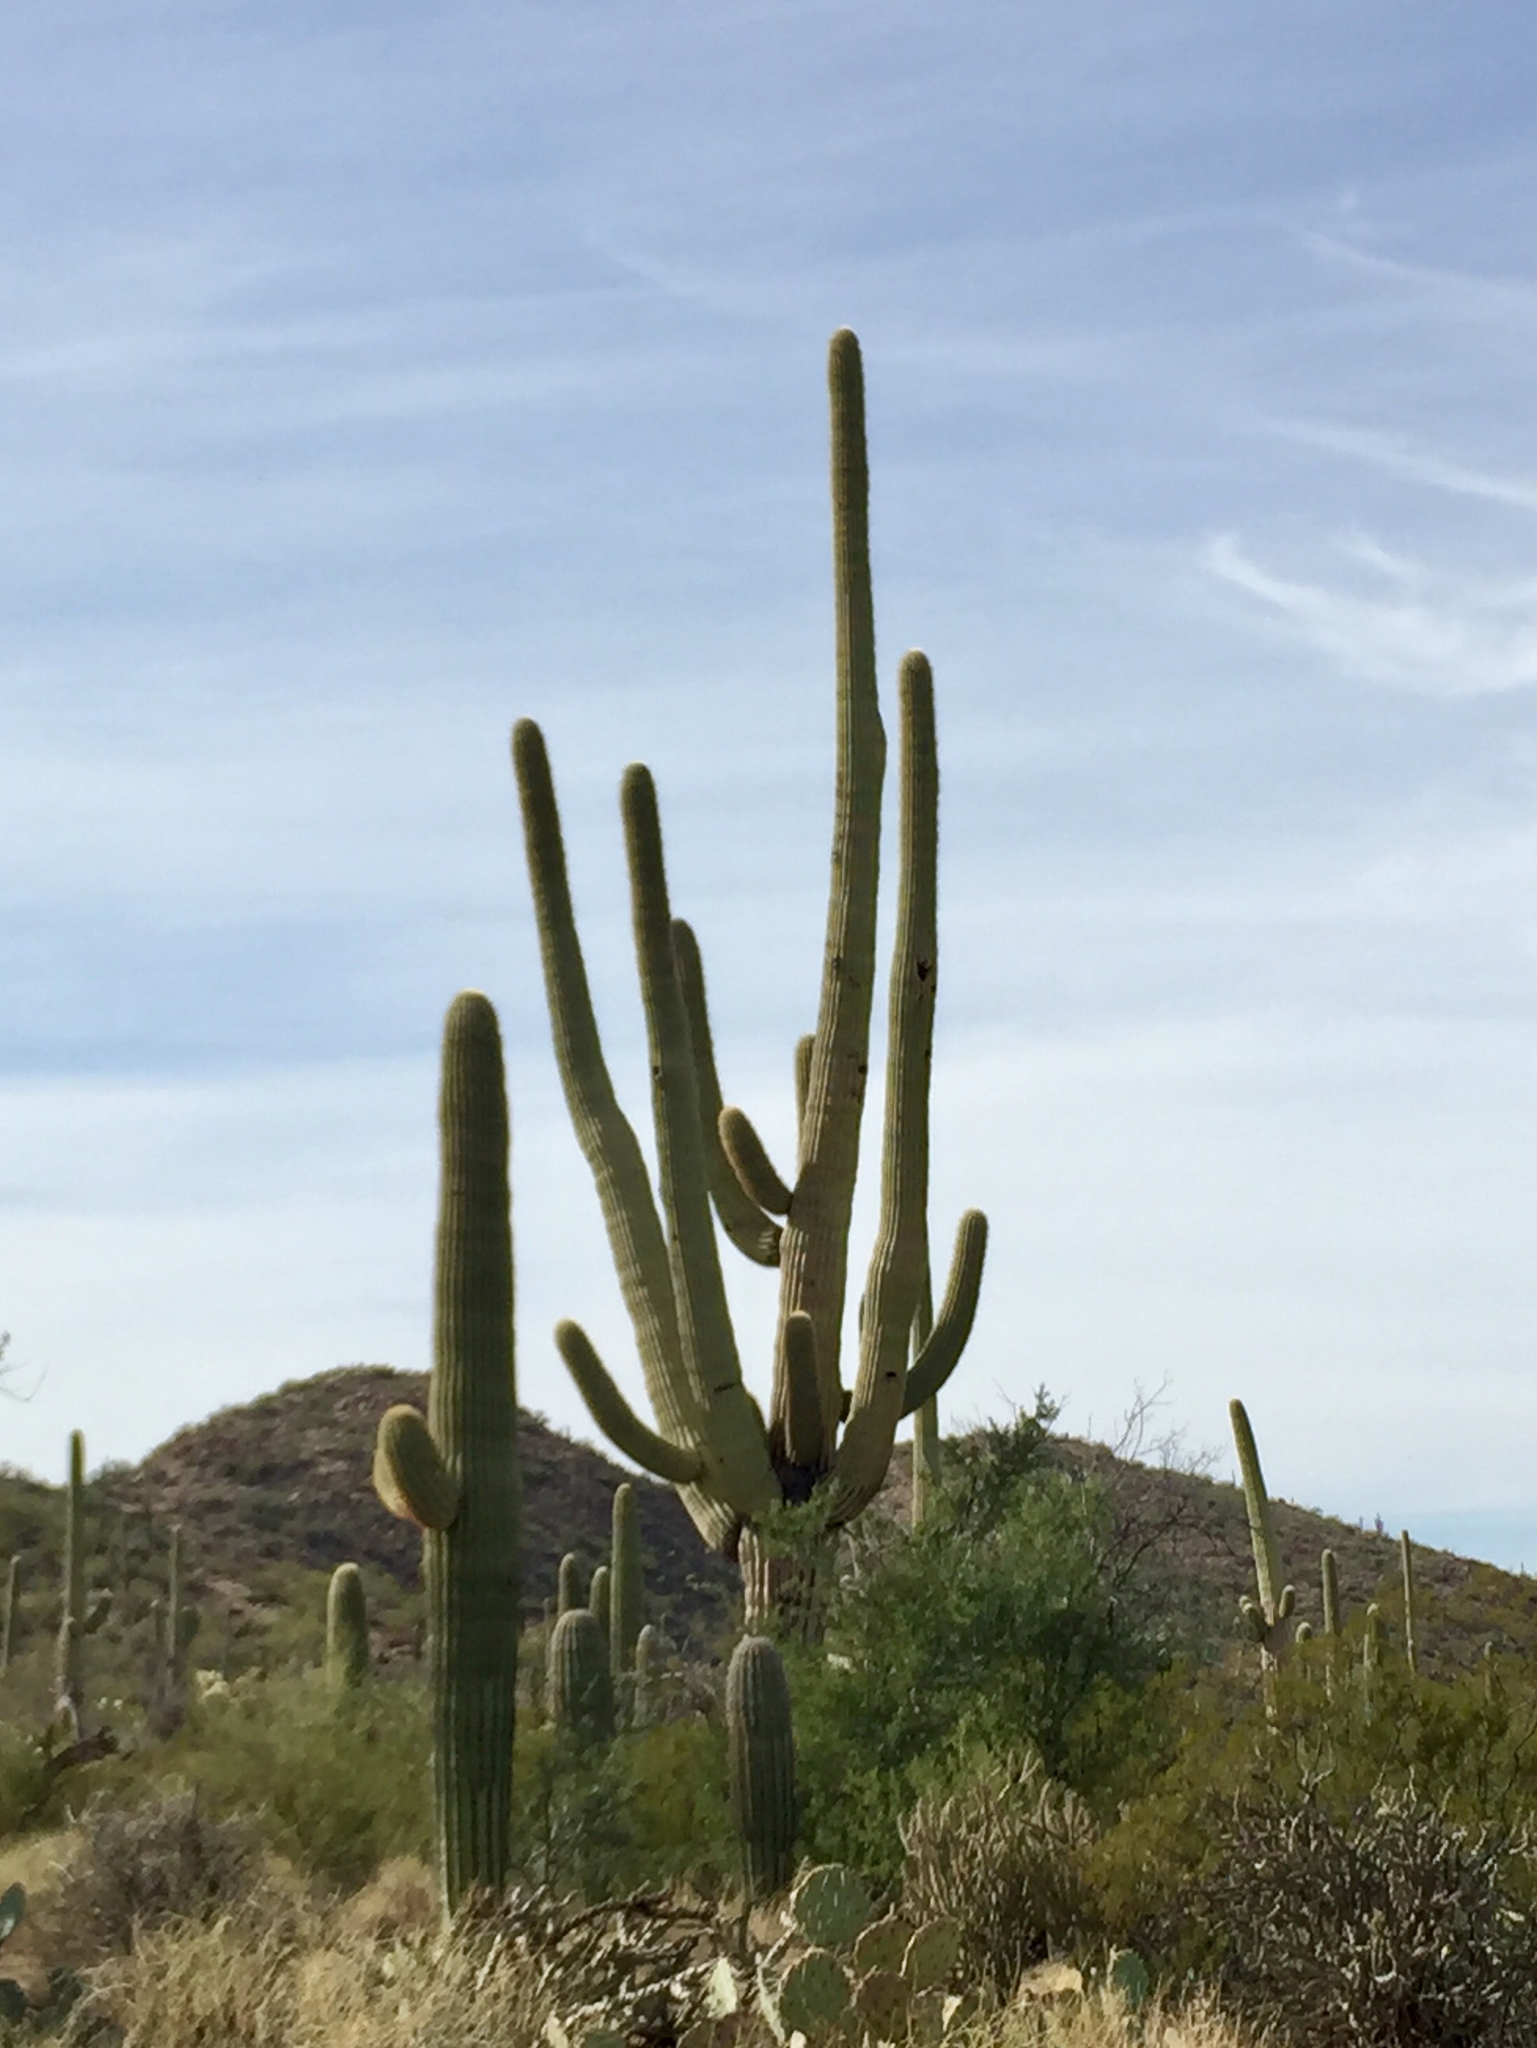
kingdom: Plantae
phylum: Tracheophyta
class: Magnoliopsida
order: Caryophyllales
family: Cactaceae
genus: Carnegiea
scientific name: Carnegiea gigantea
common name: Saguaro
